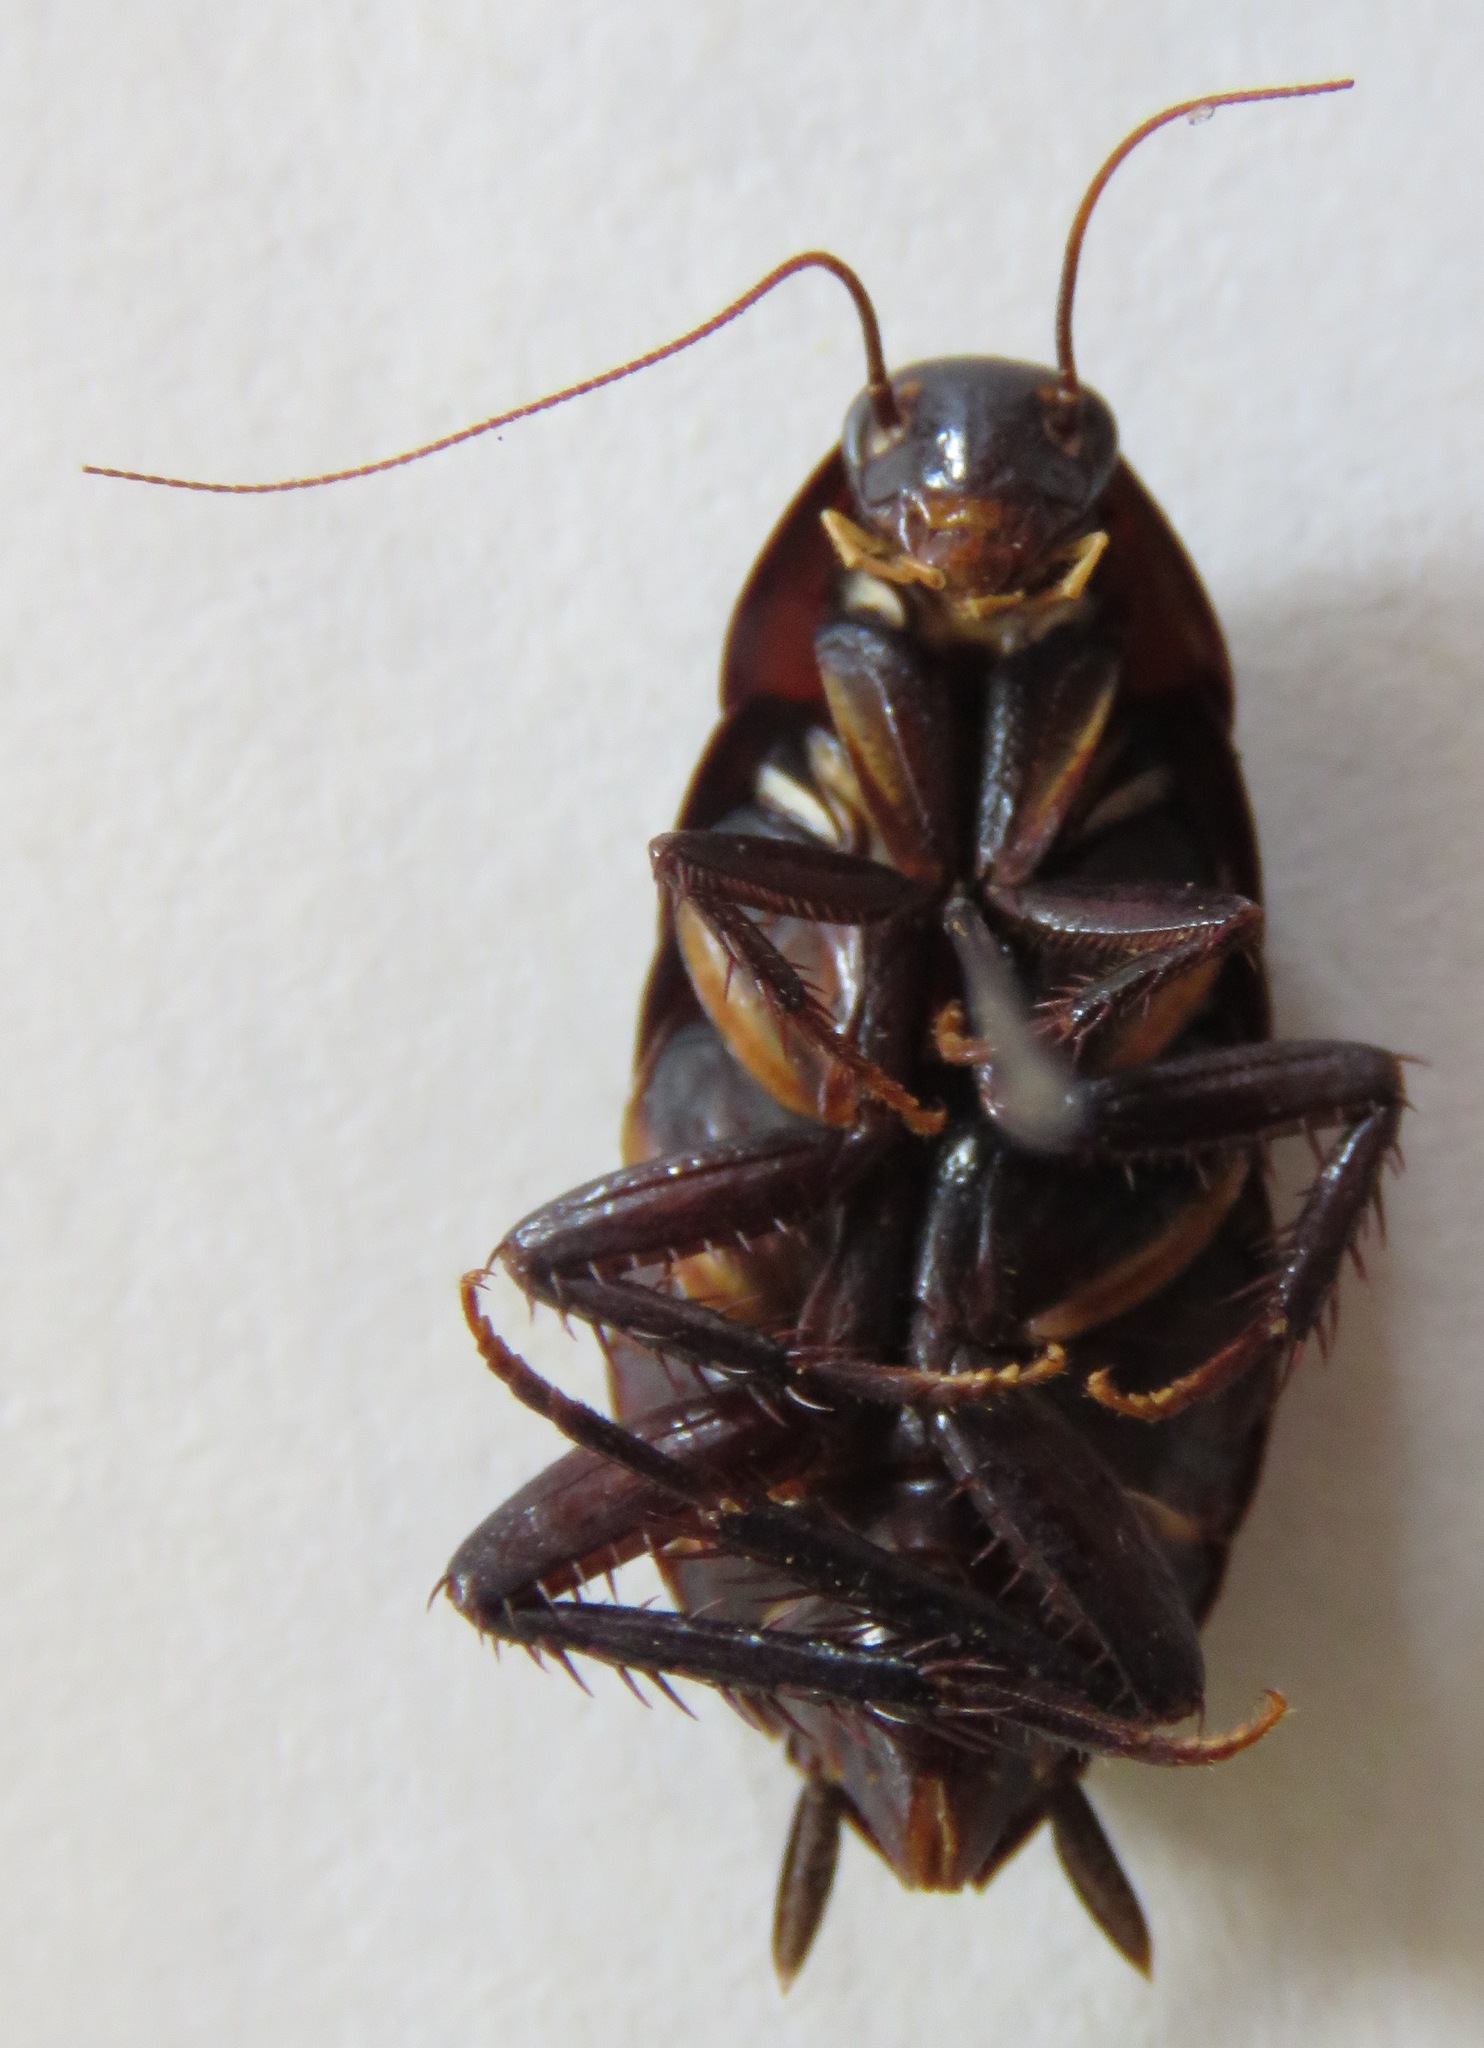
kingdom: Animalia
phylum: Arthropoda
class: Insecta
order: Blattodea
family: Lamproblattidae
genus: Lamproblatta
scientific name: Lamproblatta albipalpus
